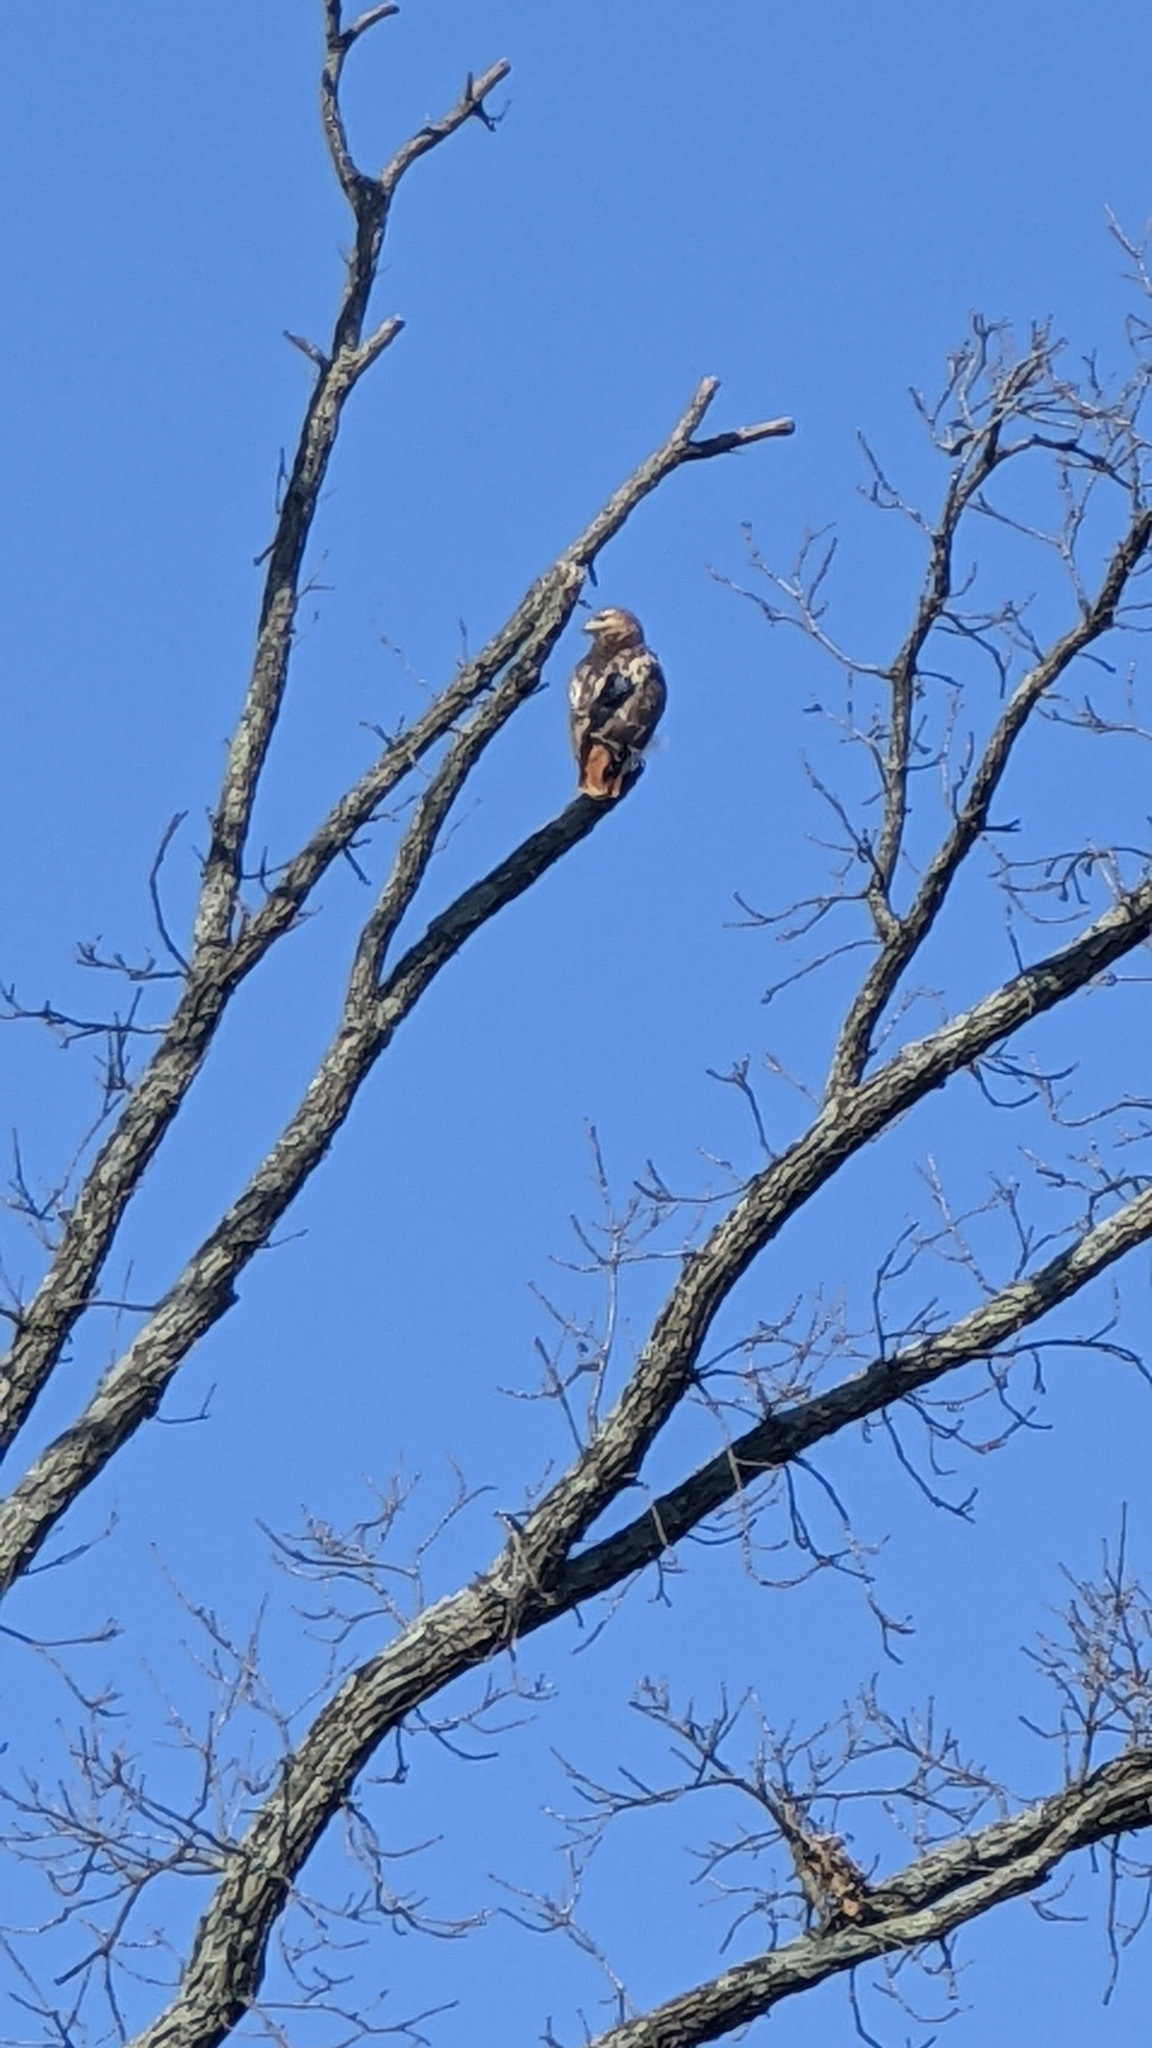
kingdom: Animalia
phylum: Chordata
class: Aves
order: Accipitriformes
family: Accipitridae
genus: Buteo
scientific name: Buteo jamaicensis
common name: Red-tailed hawk
